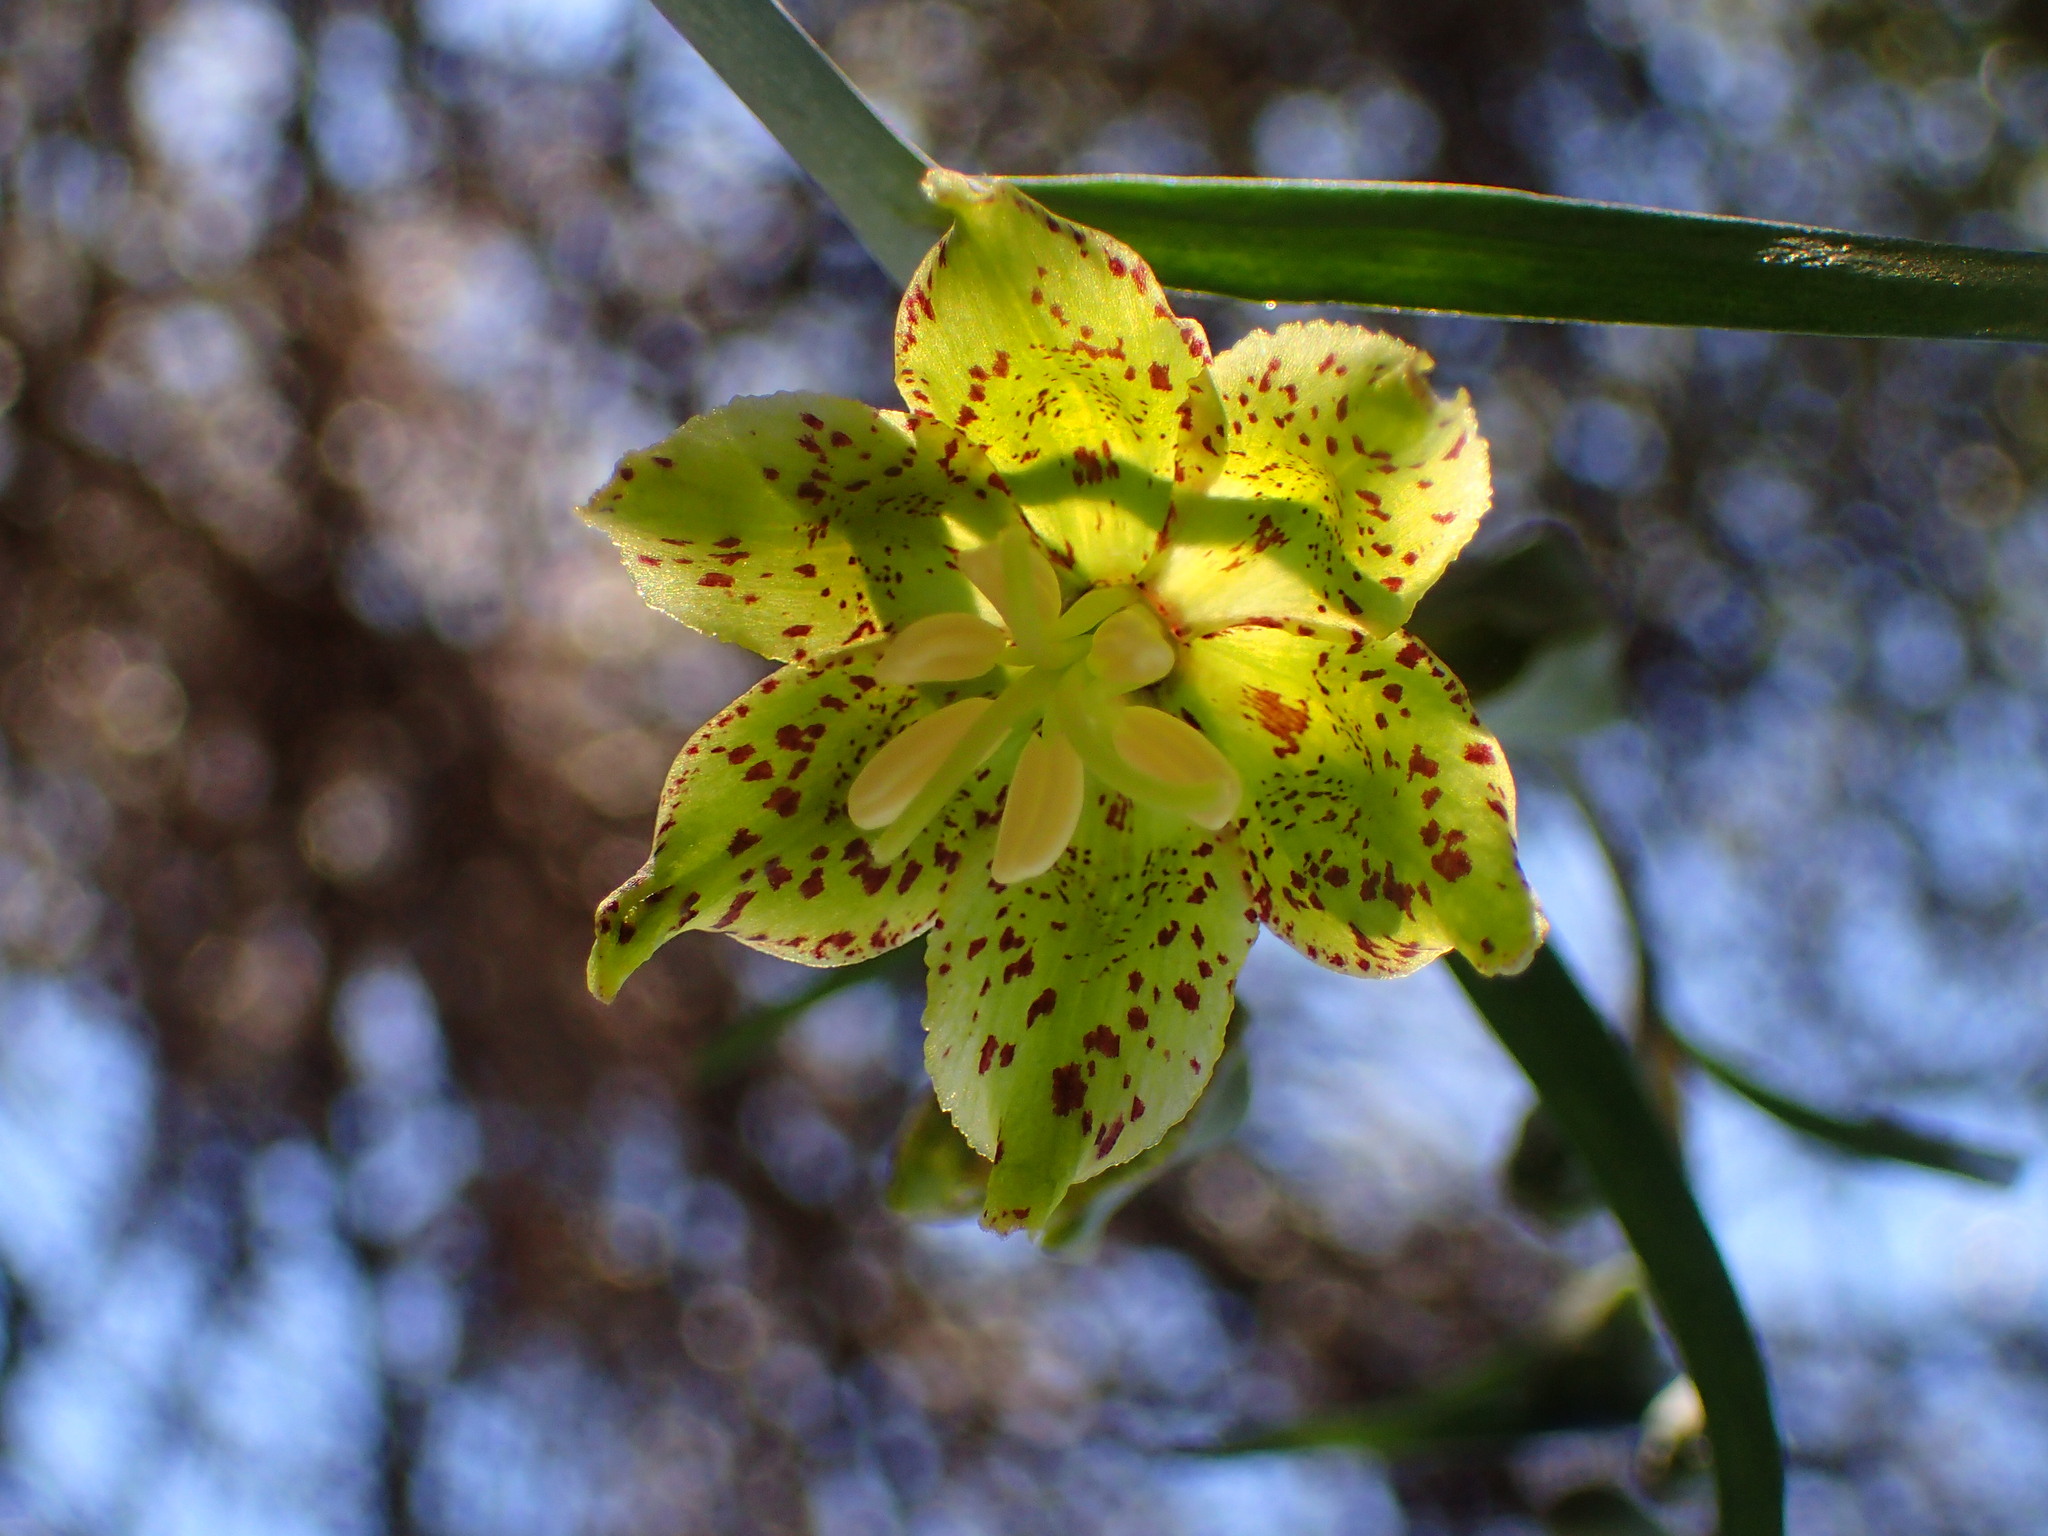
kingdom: Plantae
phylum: Tracheophyta
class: Liliopsida
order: Liliales
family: Liliaceae
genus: Fritillaria
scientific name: Fritillaria ojaiensis
